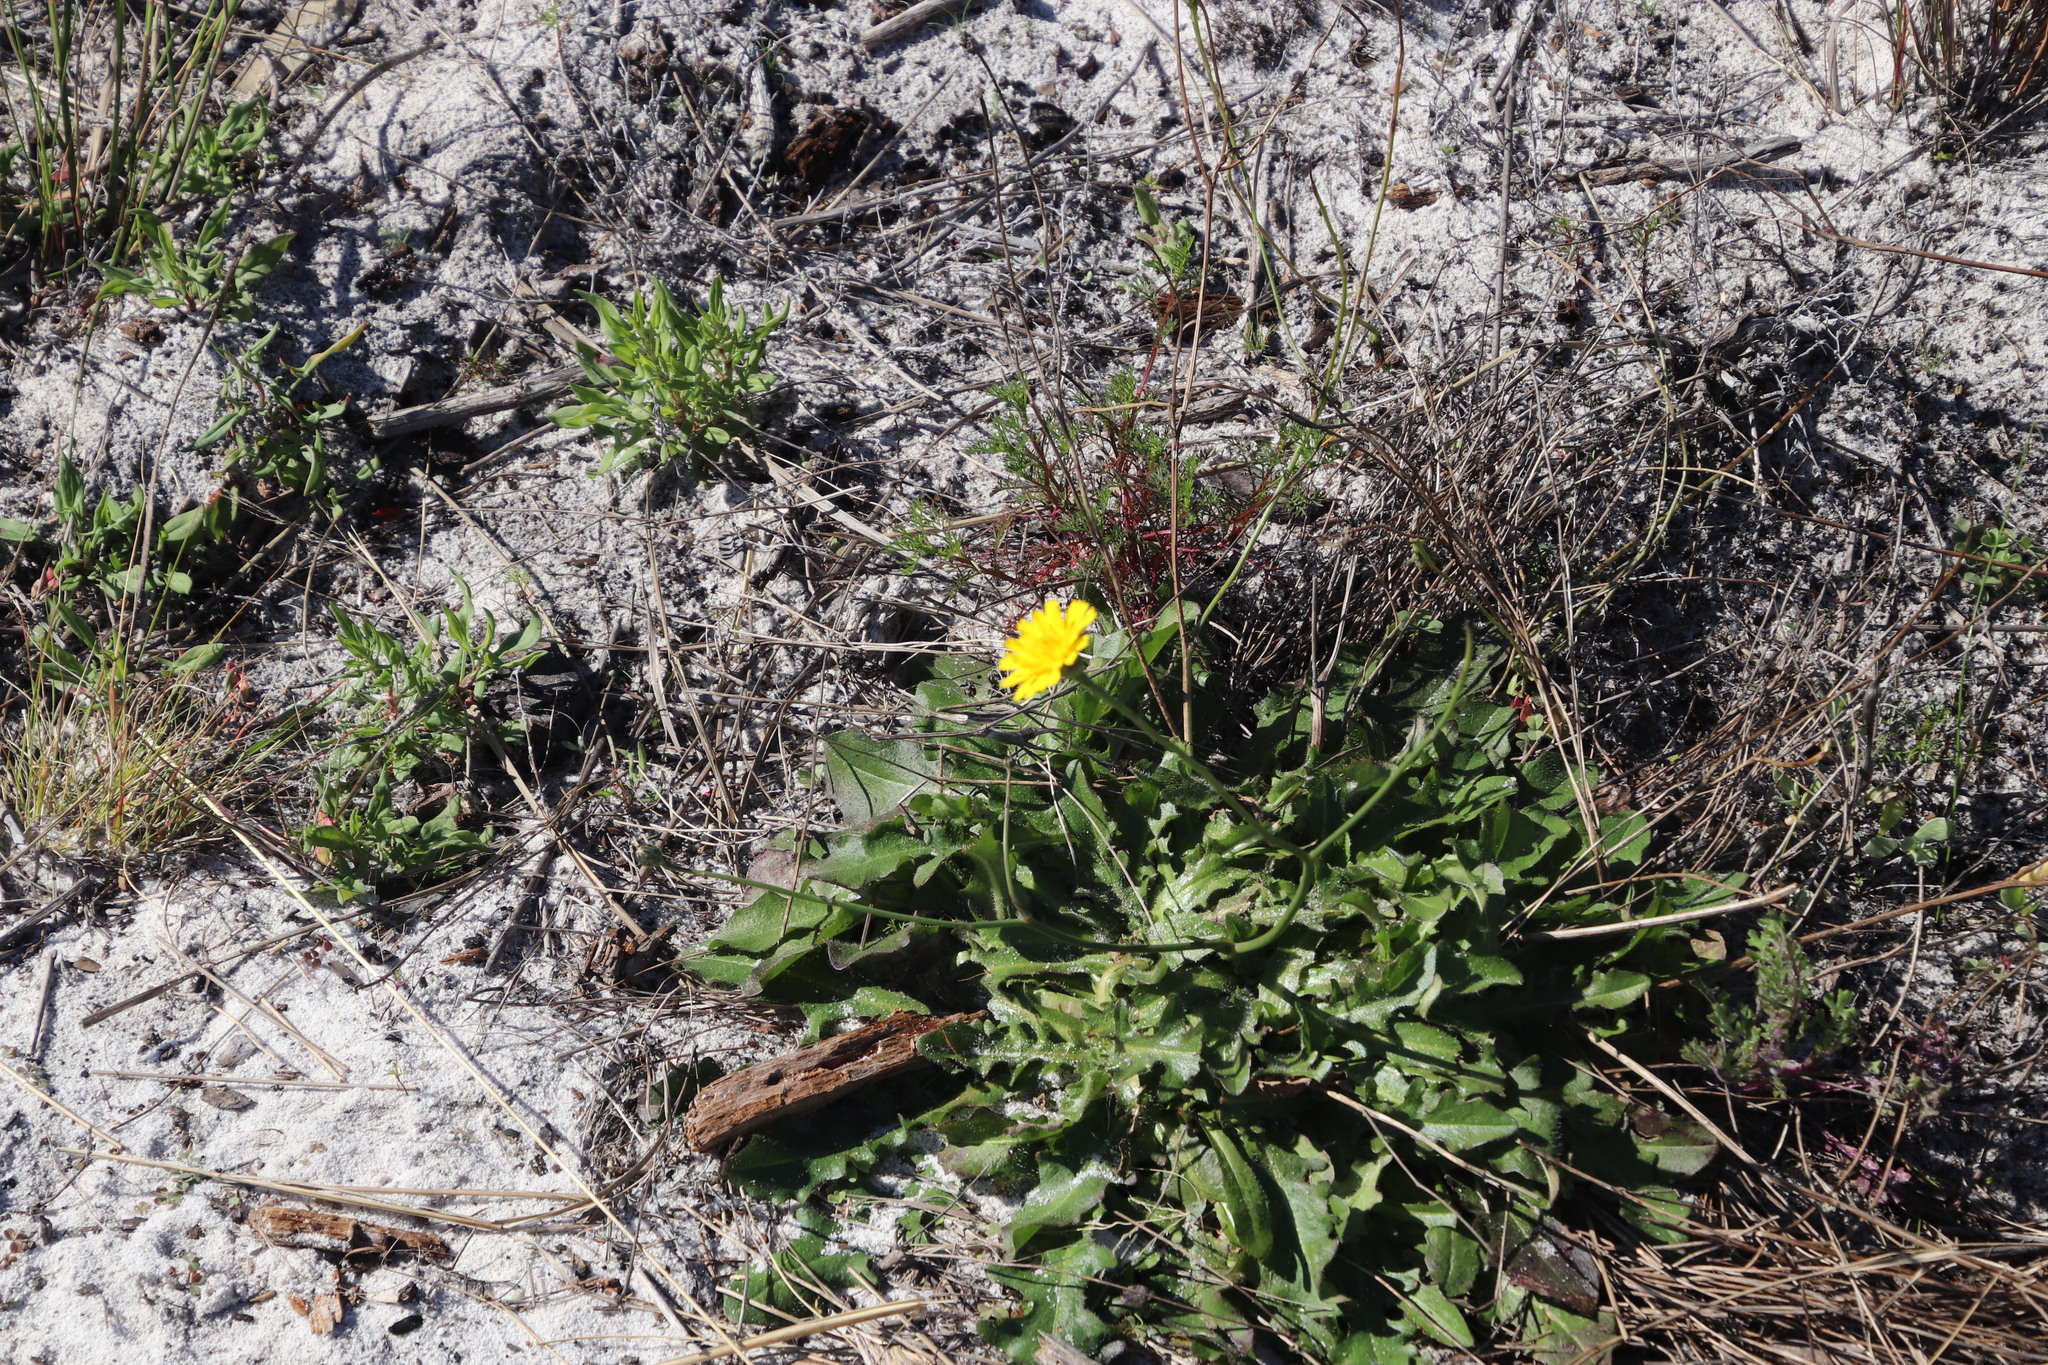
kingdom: Plantae
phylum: Tracheophyta
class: Magnoliopsida
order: Asterales
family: Asteraceae
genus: Hypochaeris
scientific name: Hypochaeris radicata
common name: Flatweed
